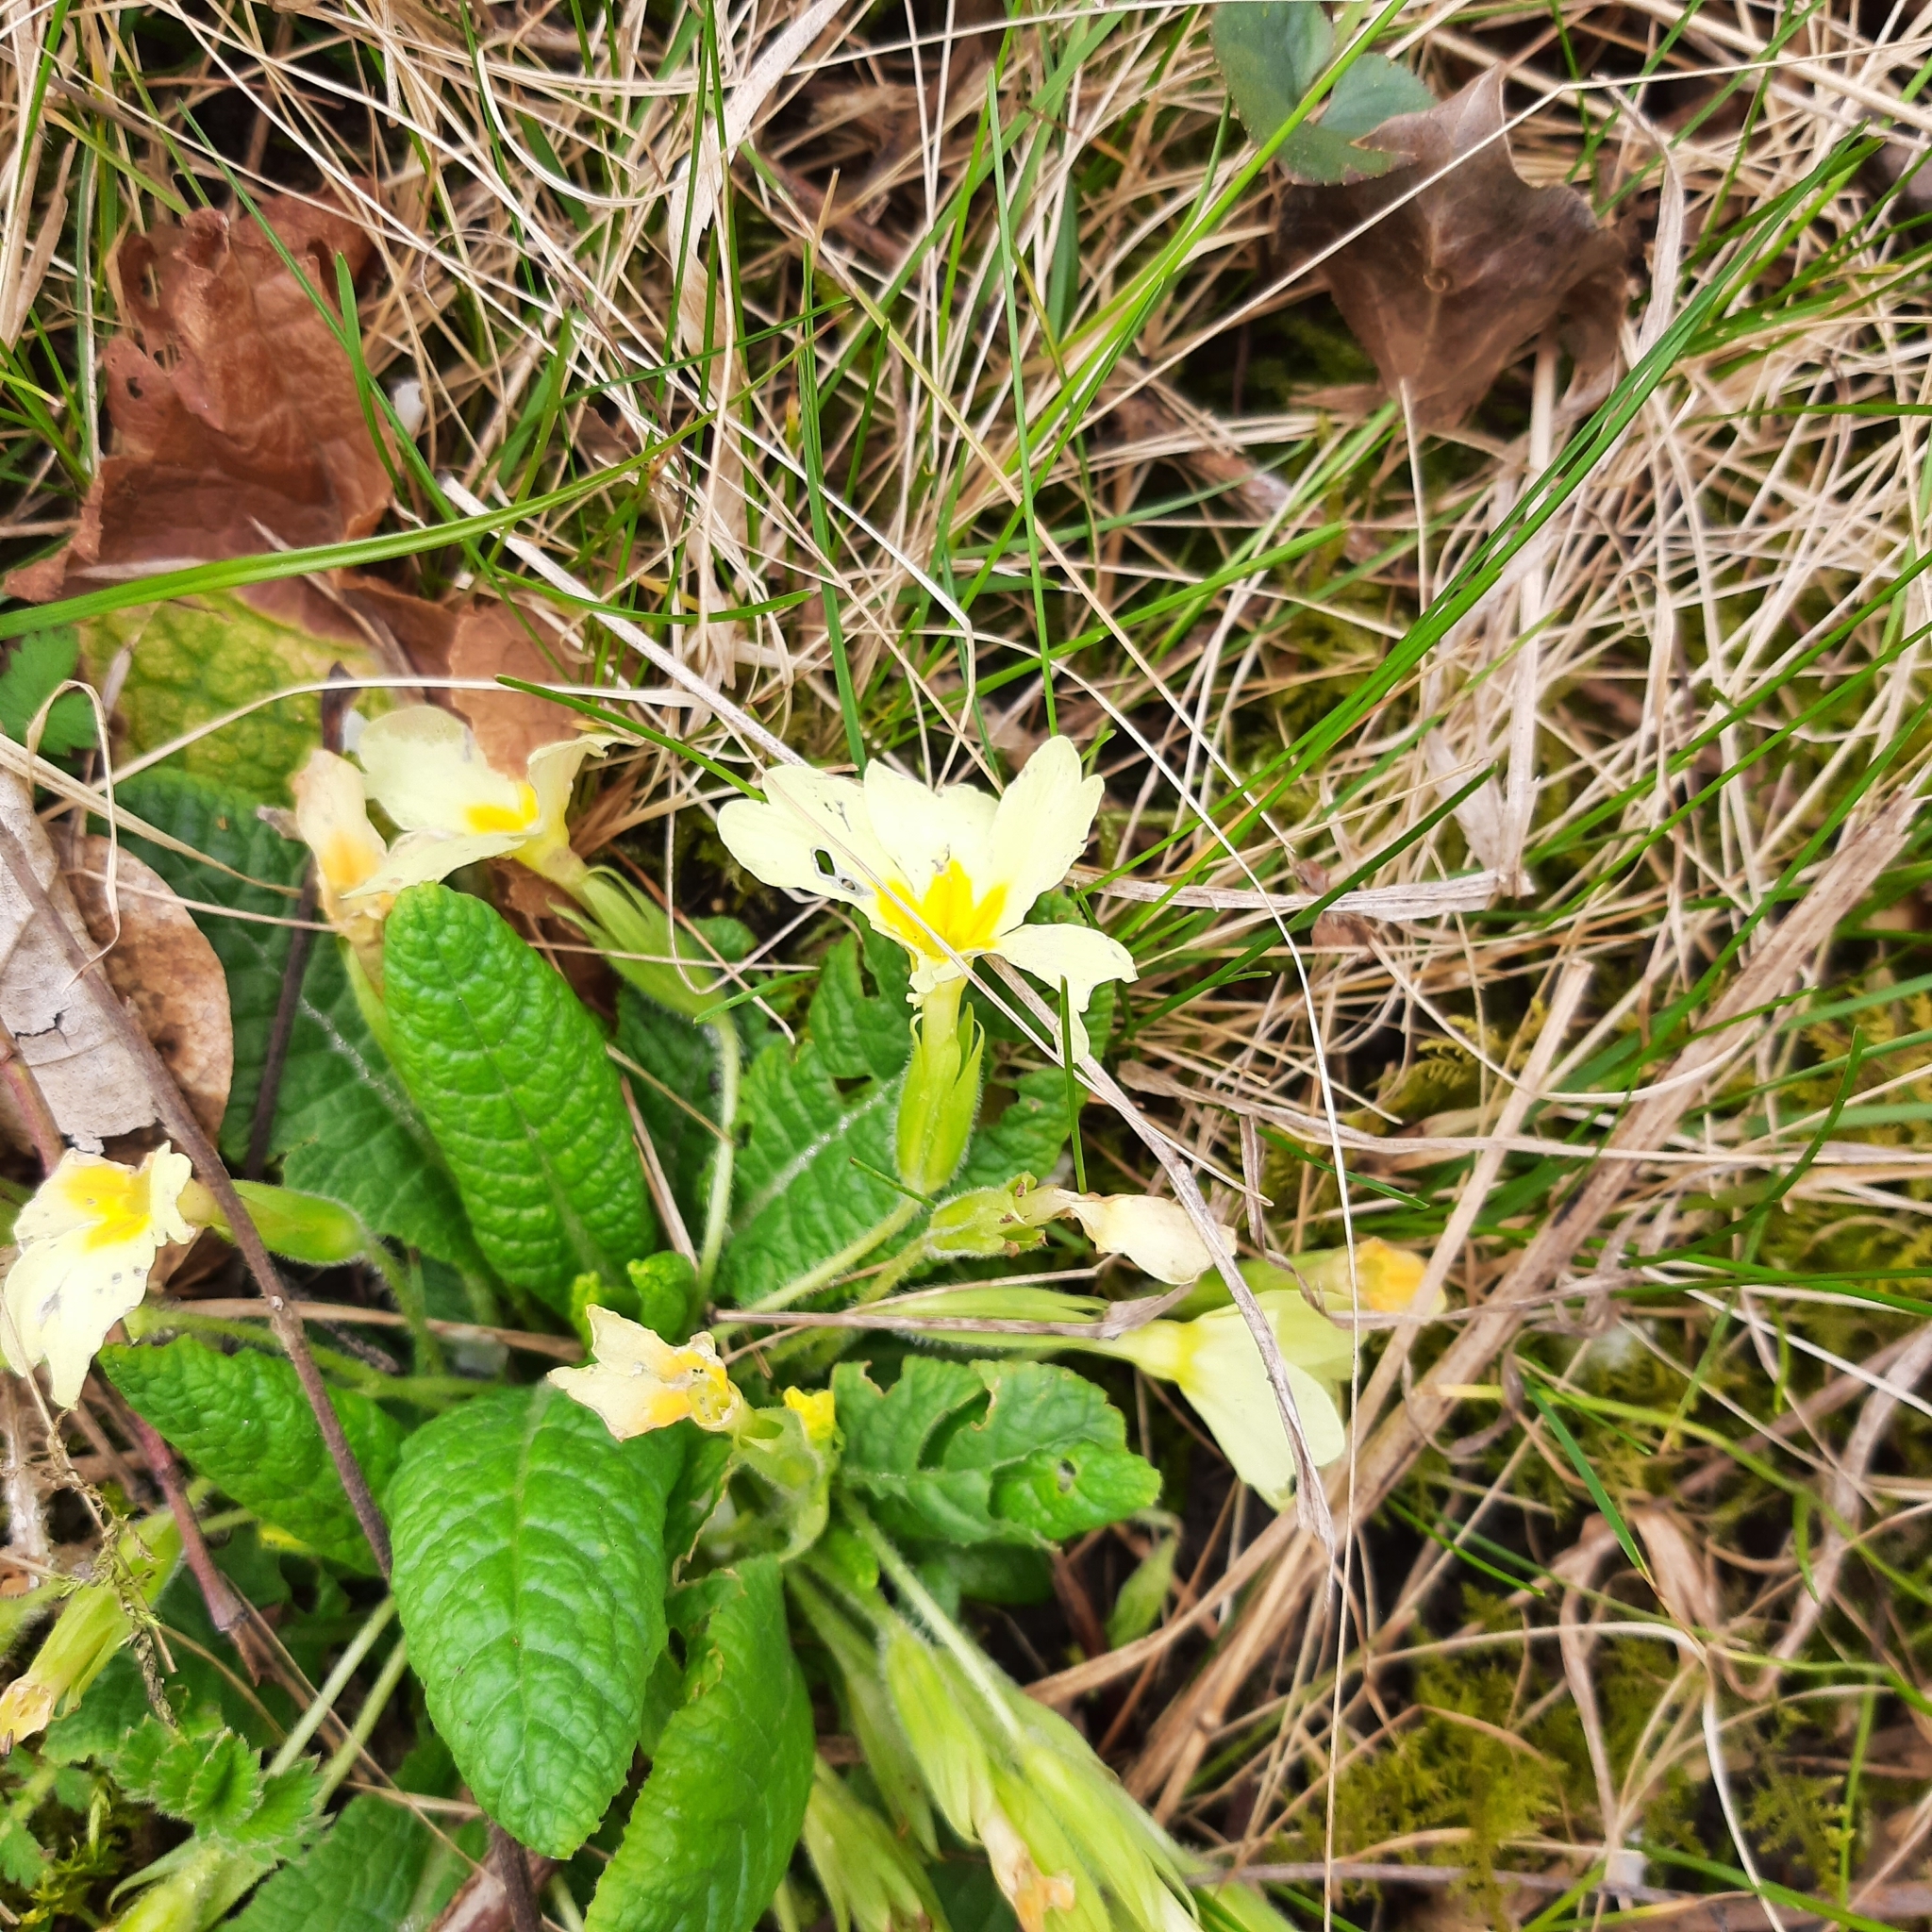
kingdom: Plantae
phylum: Tracheophyta
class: Magnoliopsida
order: Ericales
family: Primulaceae
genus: Primula
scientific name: Primula vulgaris
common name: Primrose
